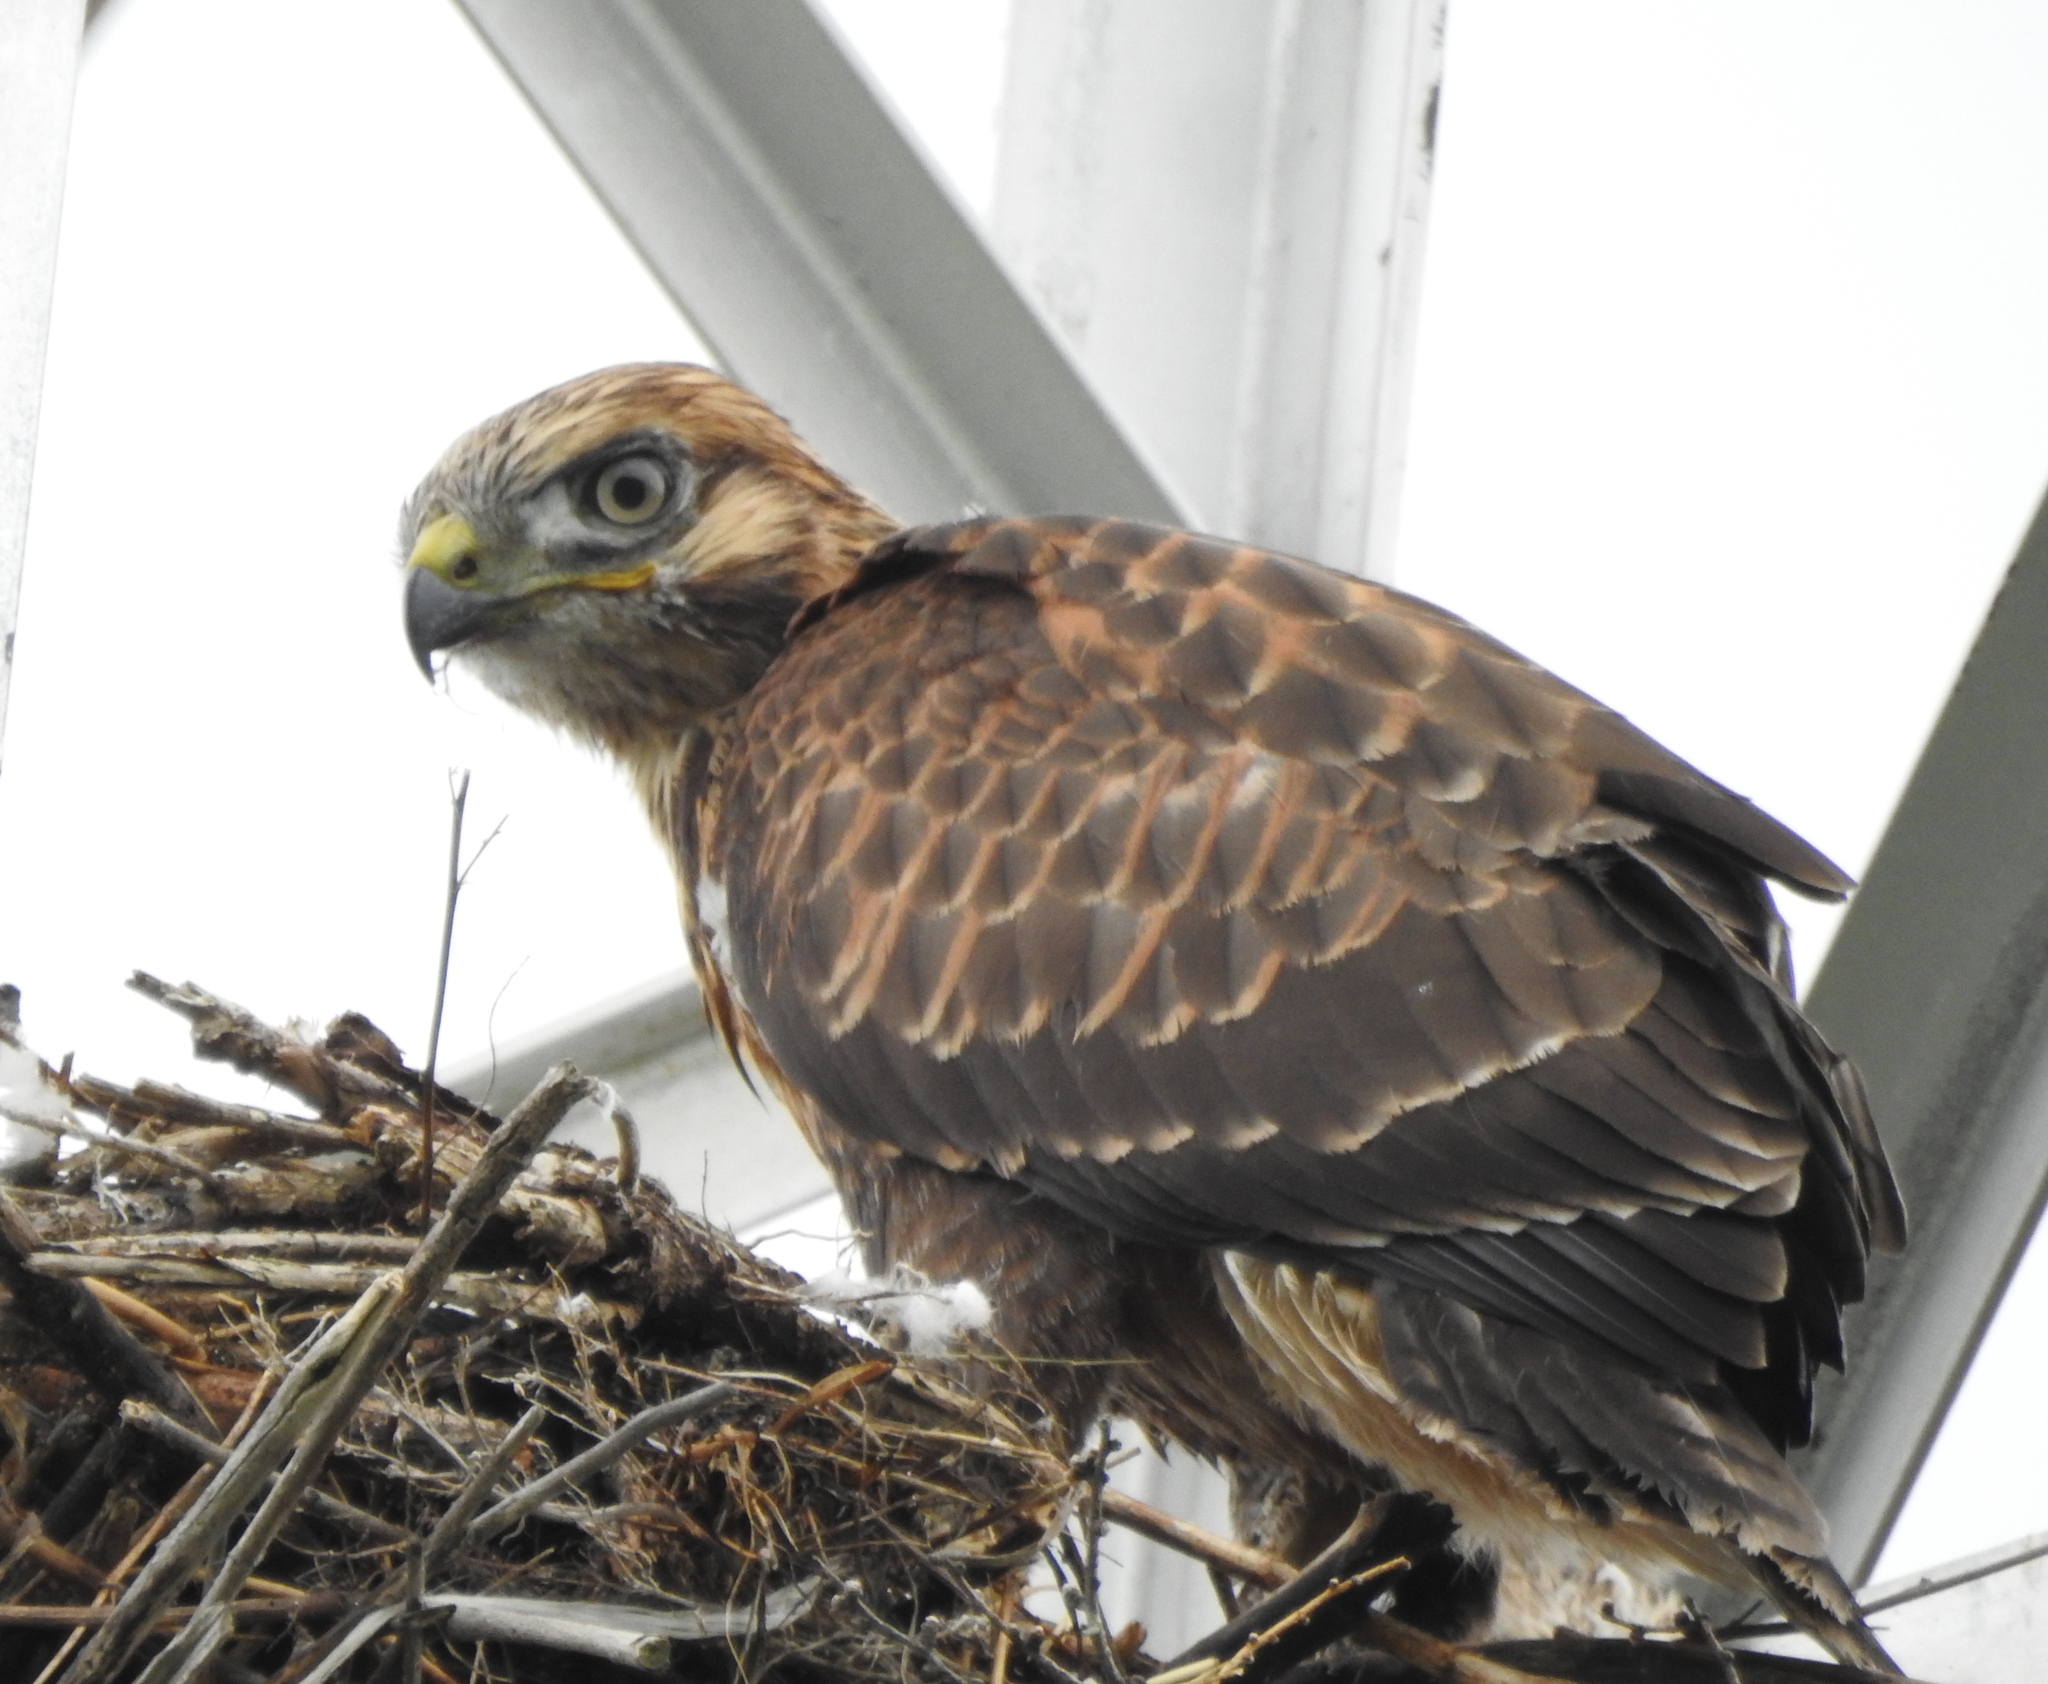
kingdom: Animalia
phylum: Chordata
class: Aves
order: Accipitriformes
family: Accipitridae
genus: Buteo
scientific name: Buteo hemilasius
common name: Upland buzzard
